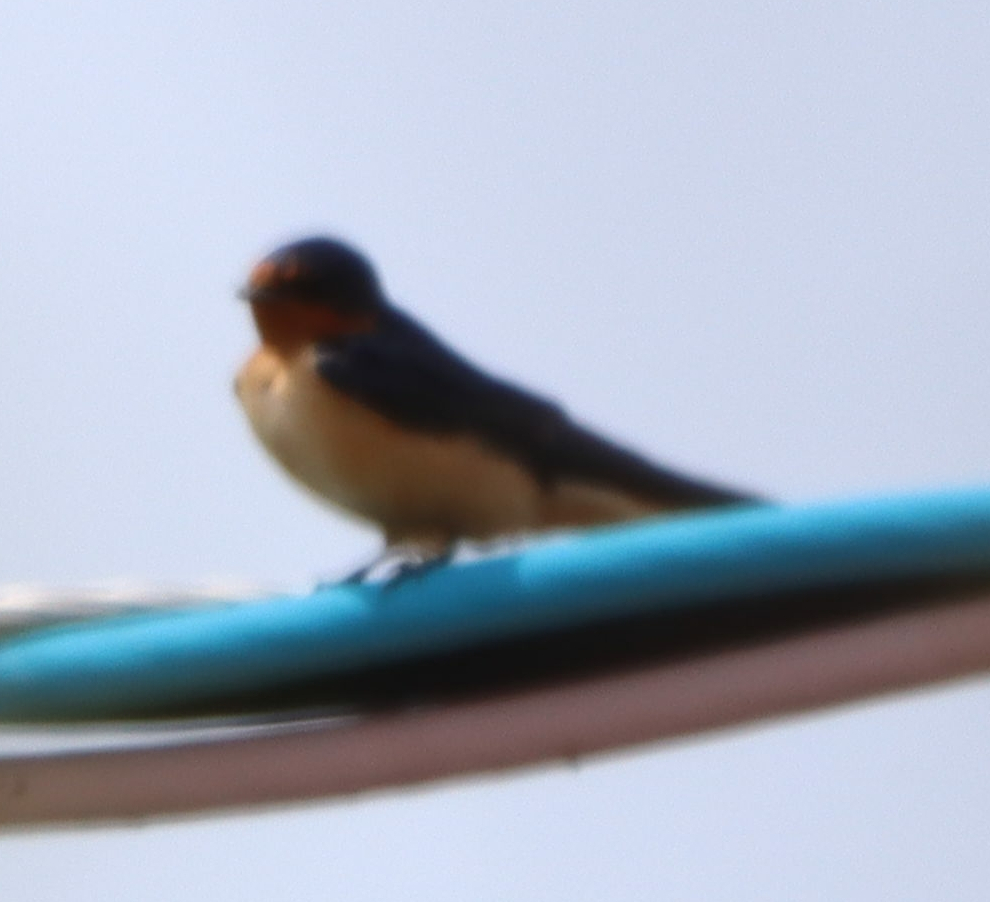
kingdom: Animalia
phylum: Chordata
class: Aves
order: Passeriformes
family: Hirundinidae
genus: Hirundo
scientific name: Hirundo rustica
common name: Barn swallow
